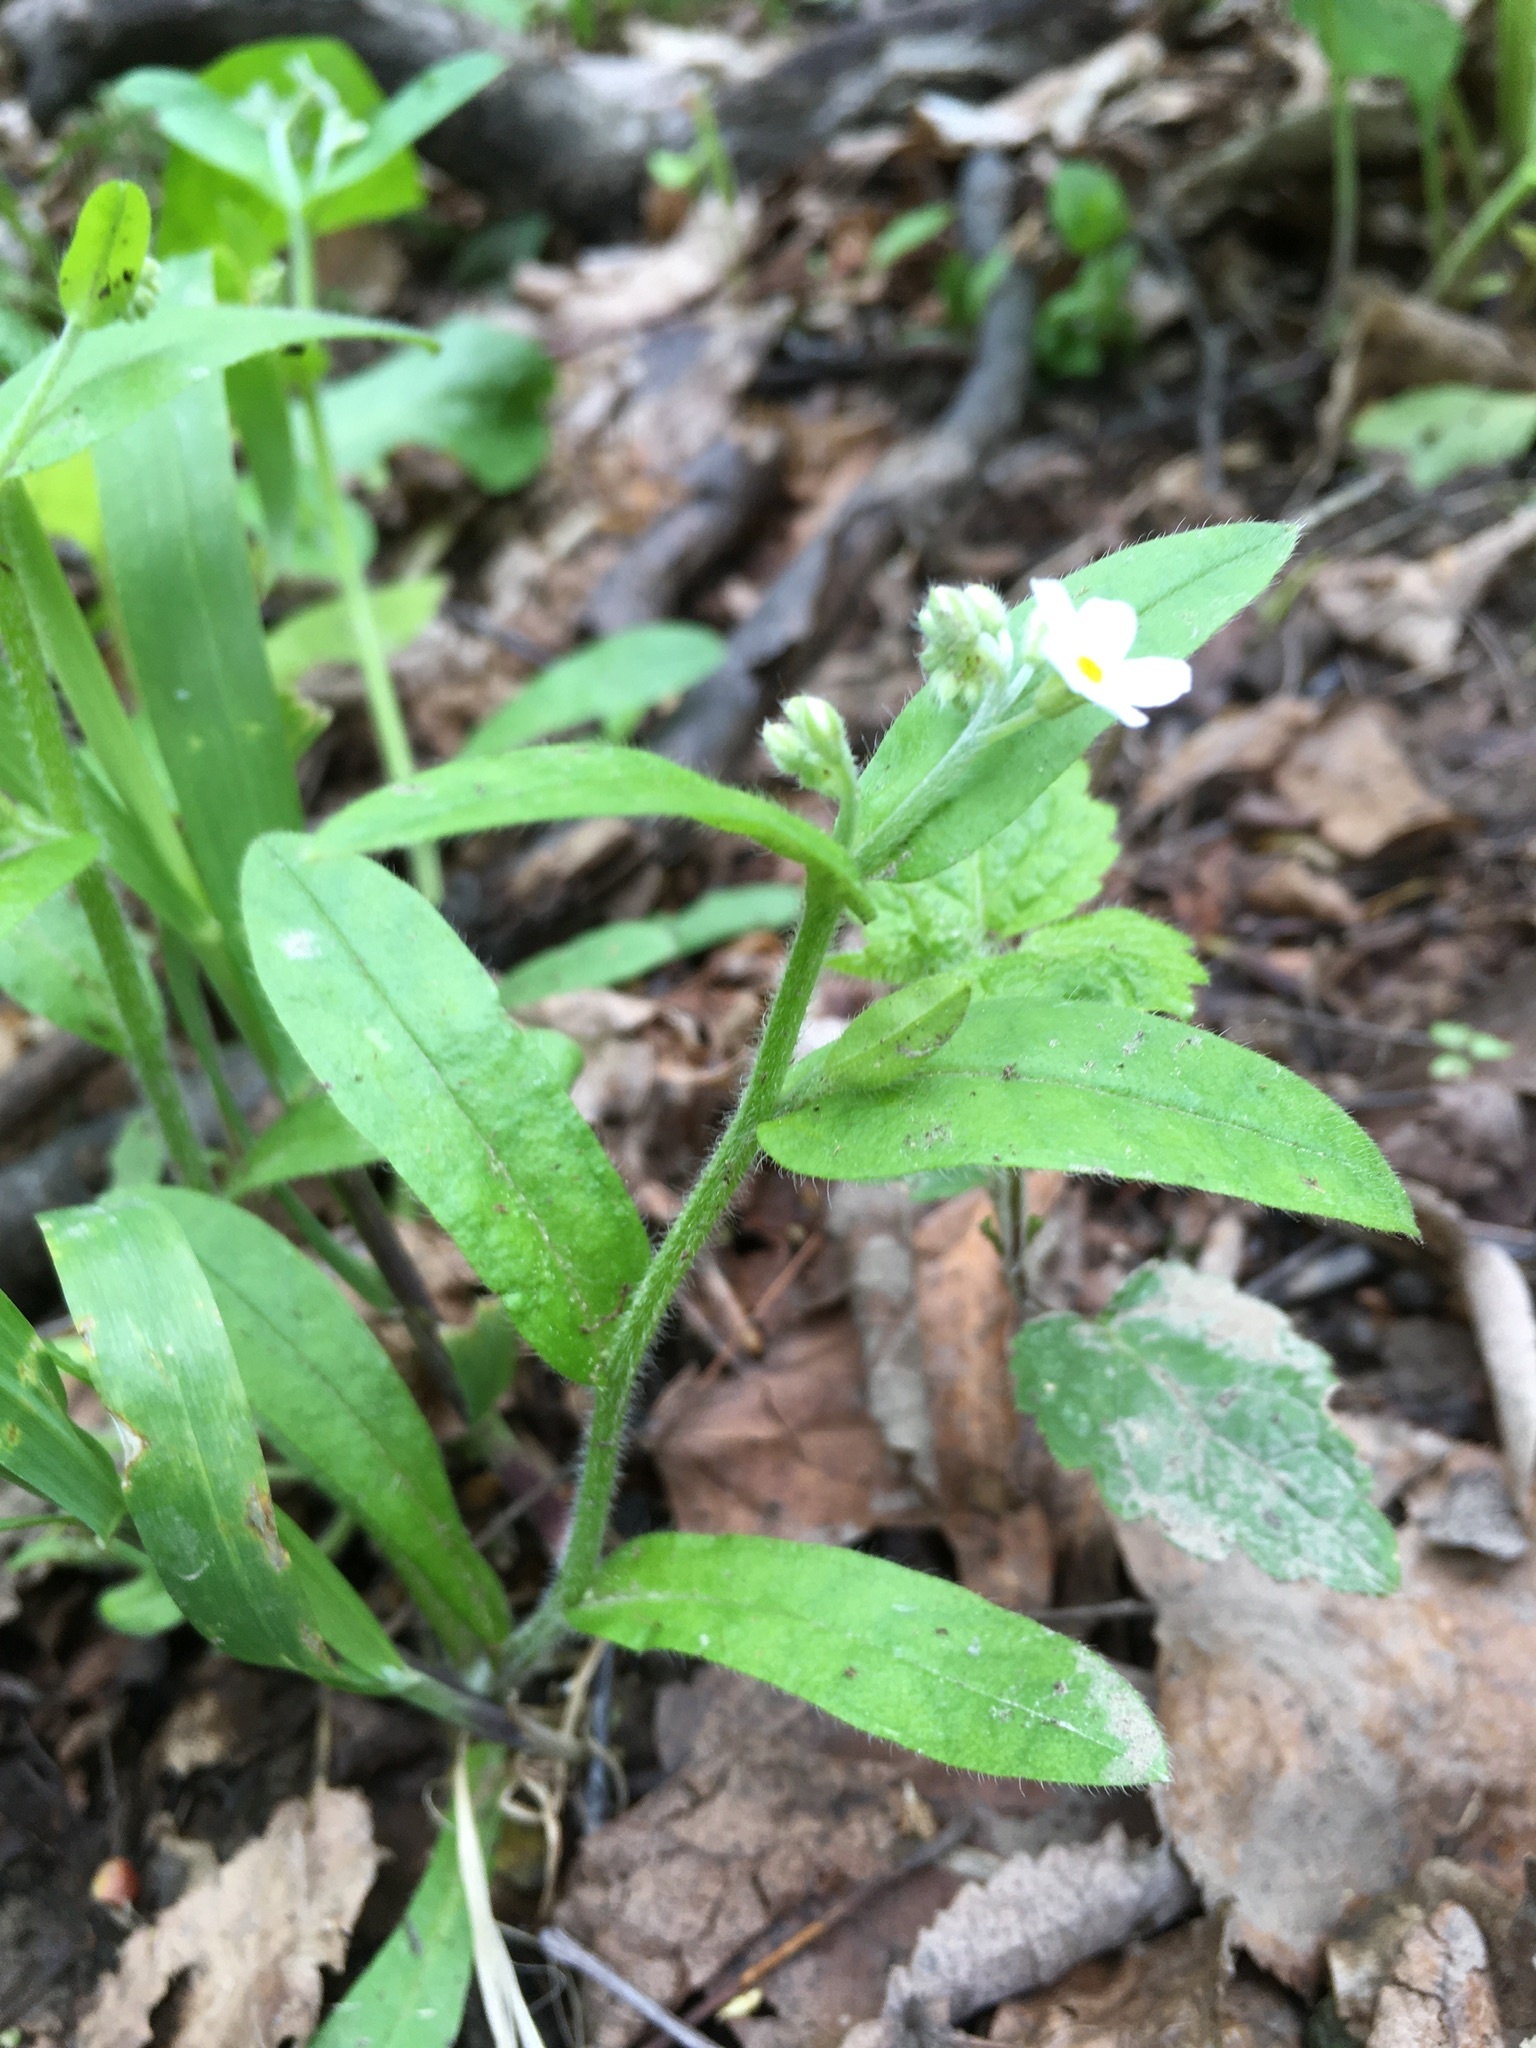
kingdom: Plantae
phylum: Tracheophyta
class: Magnoliopsida
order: Boraginales
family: Boraginaceae
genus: Myosotis
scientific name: Myosotis sylvatica
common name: Wood forget-me-not
